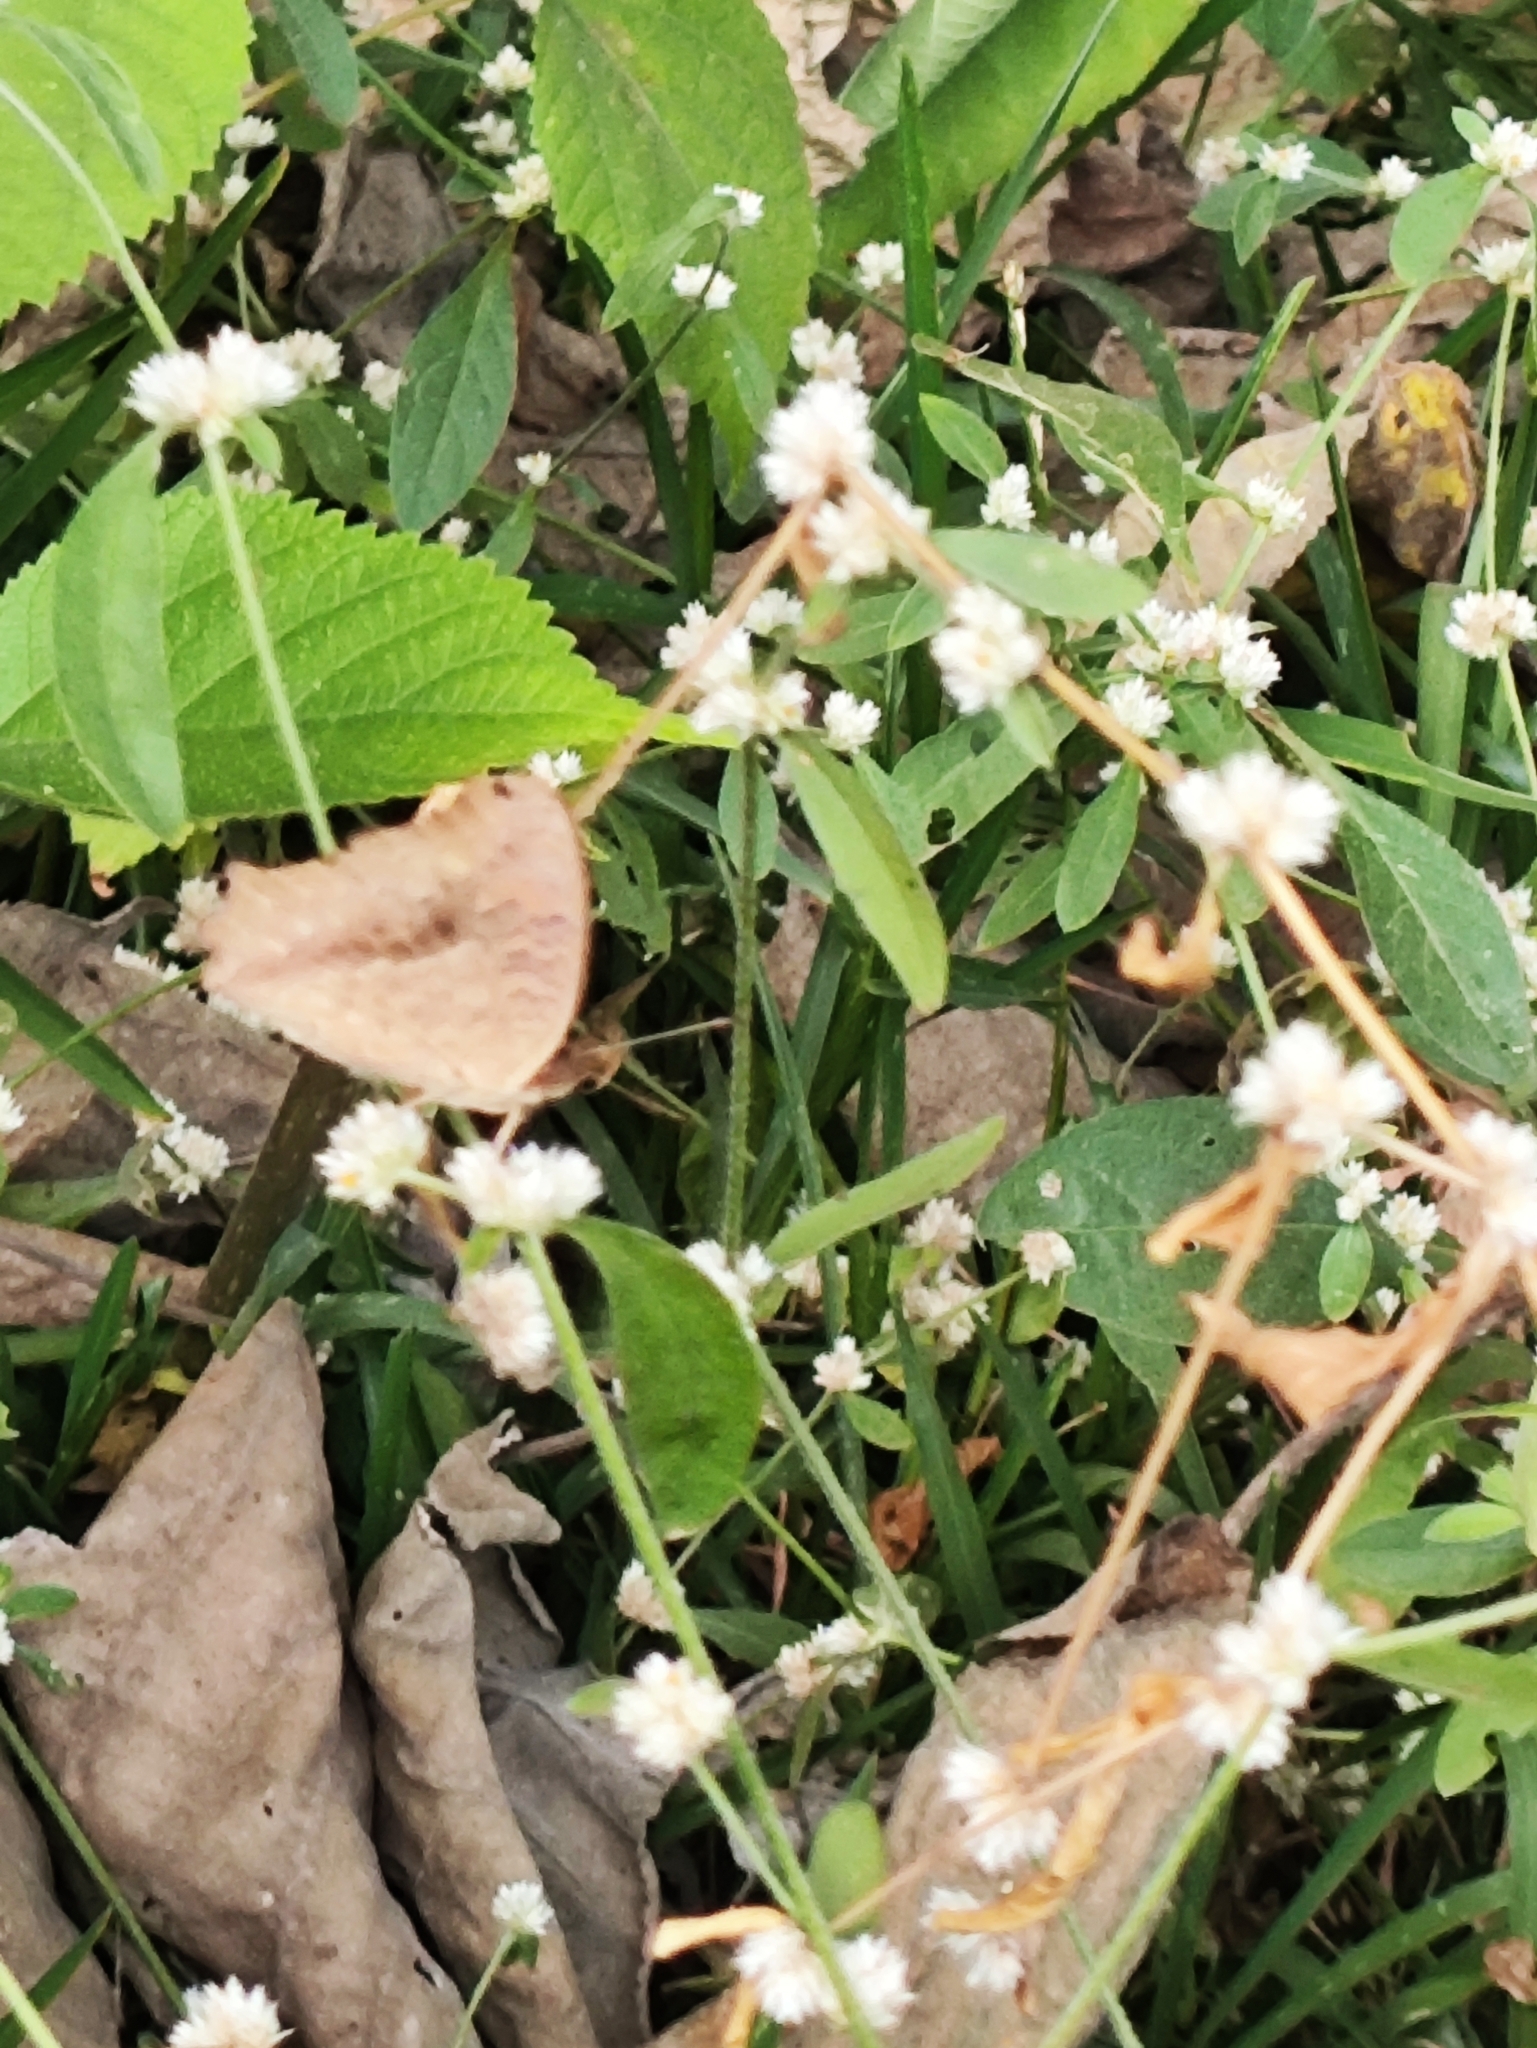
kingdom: Animalia
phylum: Arthropoda
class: Insecta
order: Lepidoptera
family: Nymphalidae
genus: Junonia
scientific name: Junonia lemonias
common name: Lemon pansy
